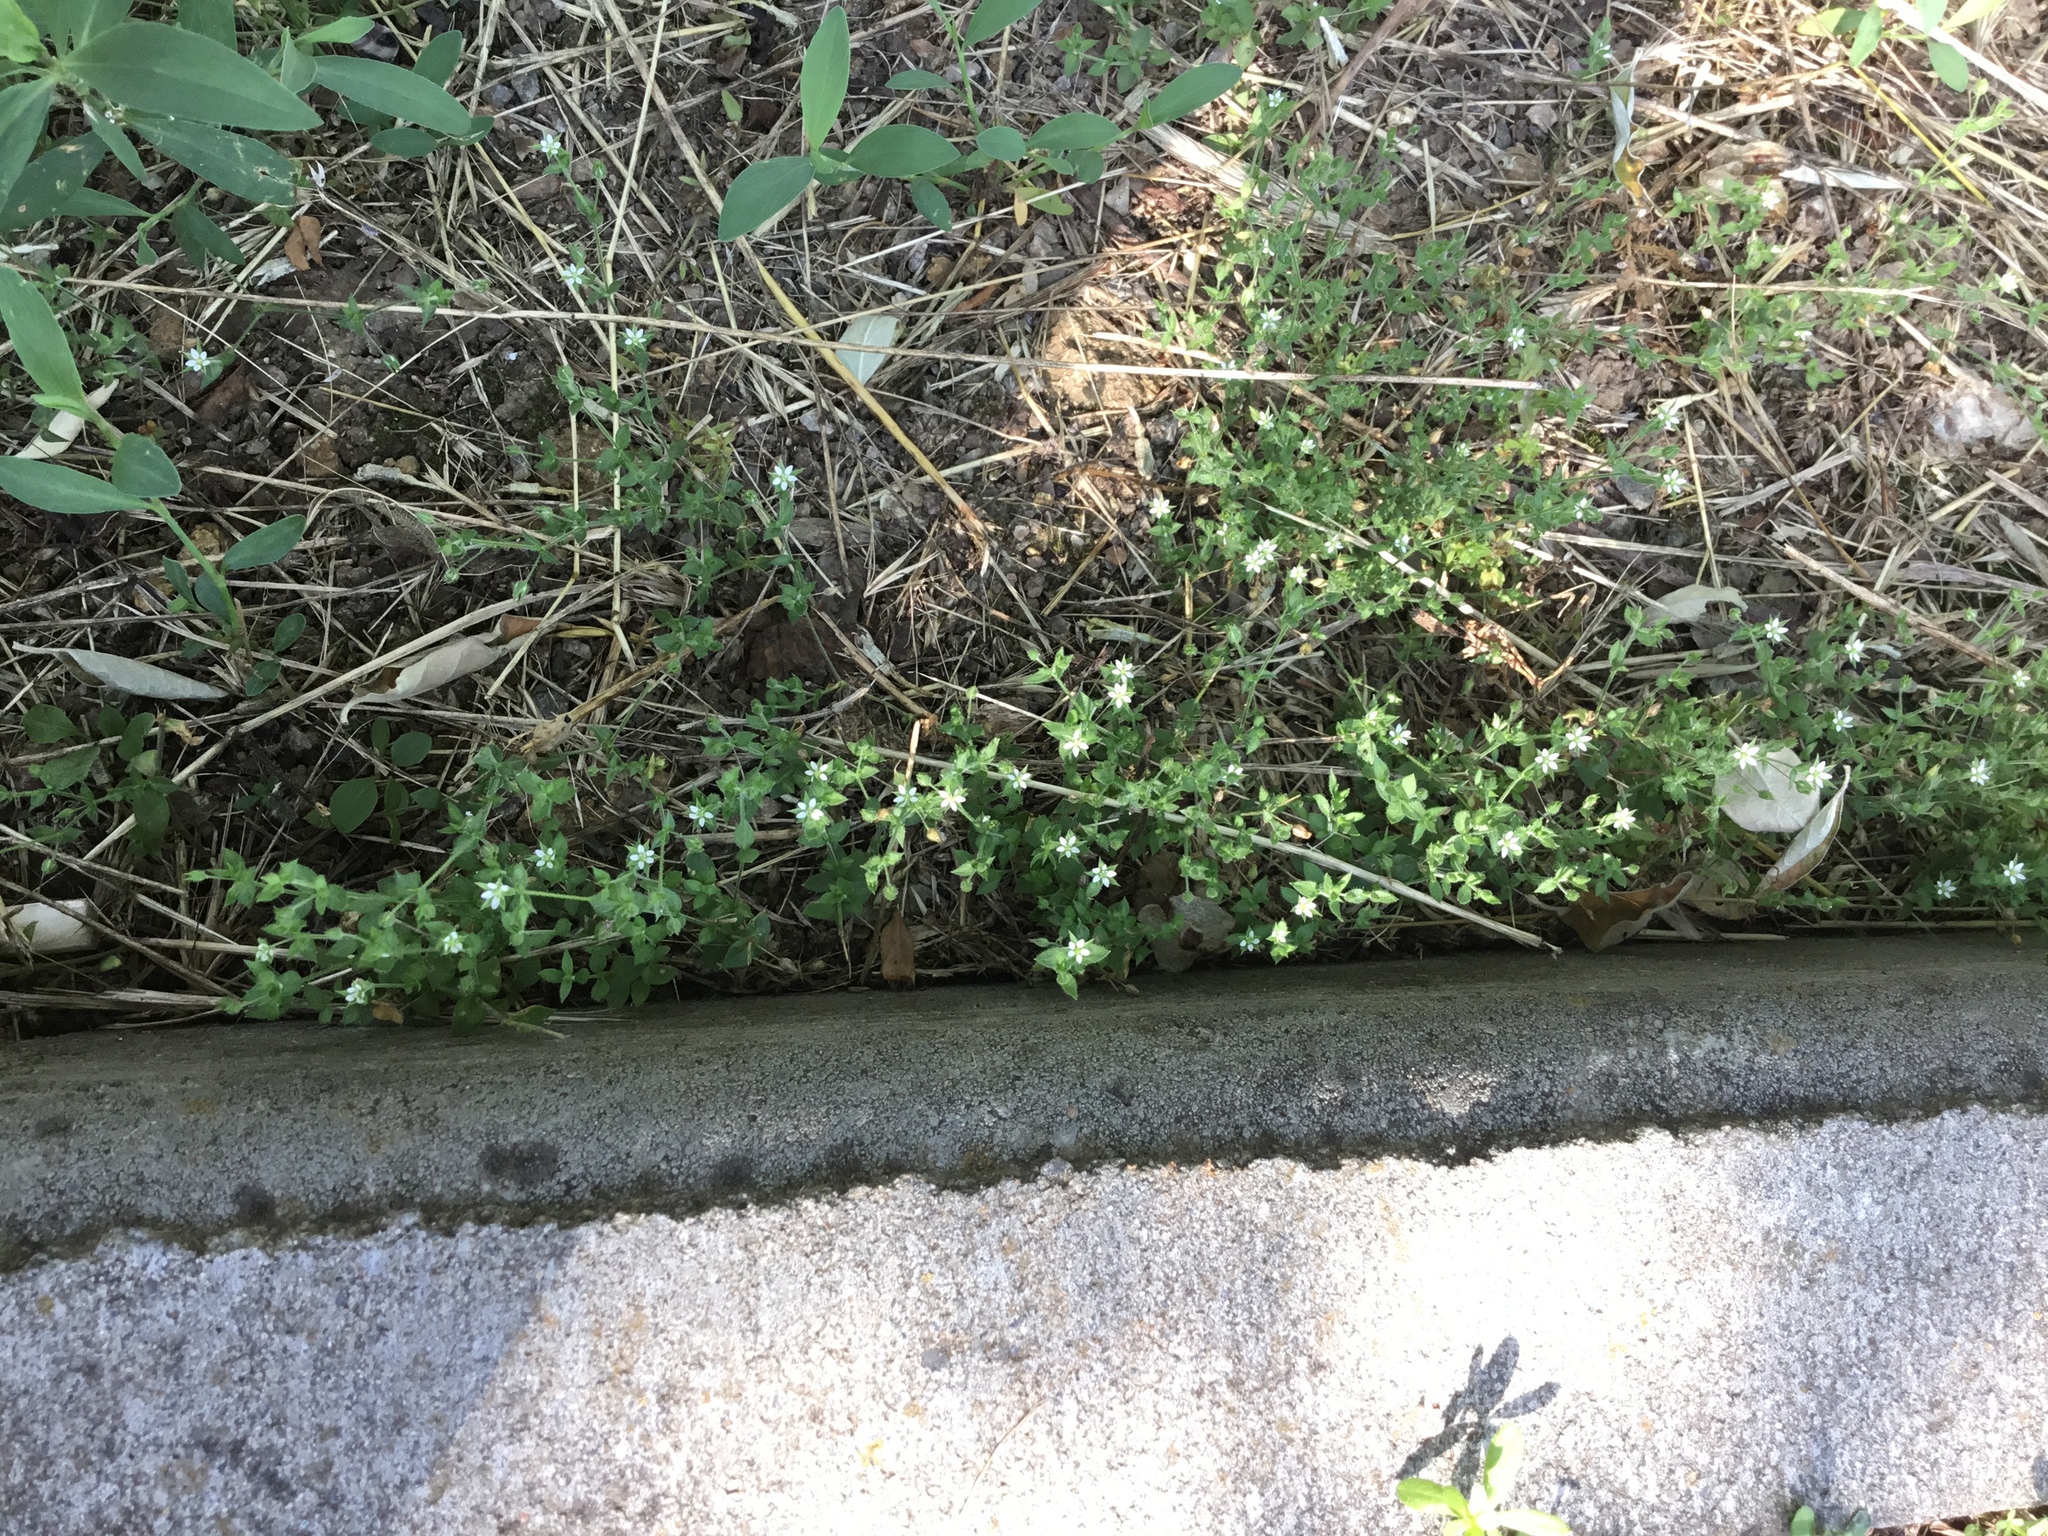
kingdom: Plantae
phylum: Tracheophyta
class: Magnoliopsida
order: Caryophyllales
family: Caryophyllaceae
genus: Arenaria
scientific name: Arenaria serpyllifolia
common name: Thyme-leaved sandwort
